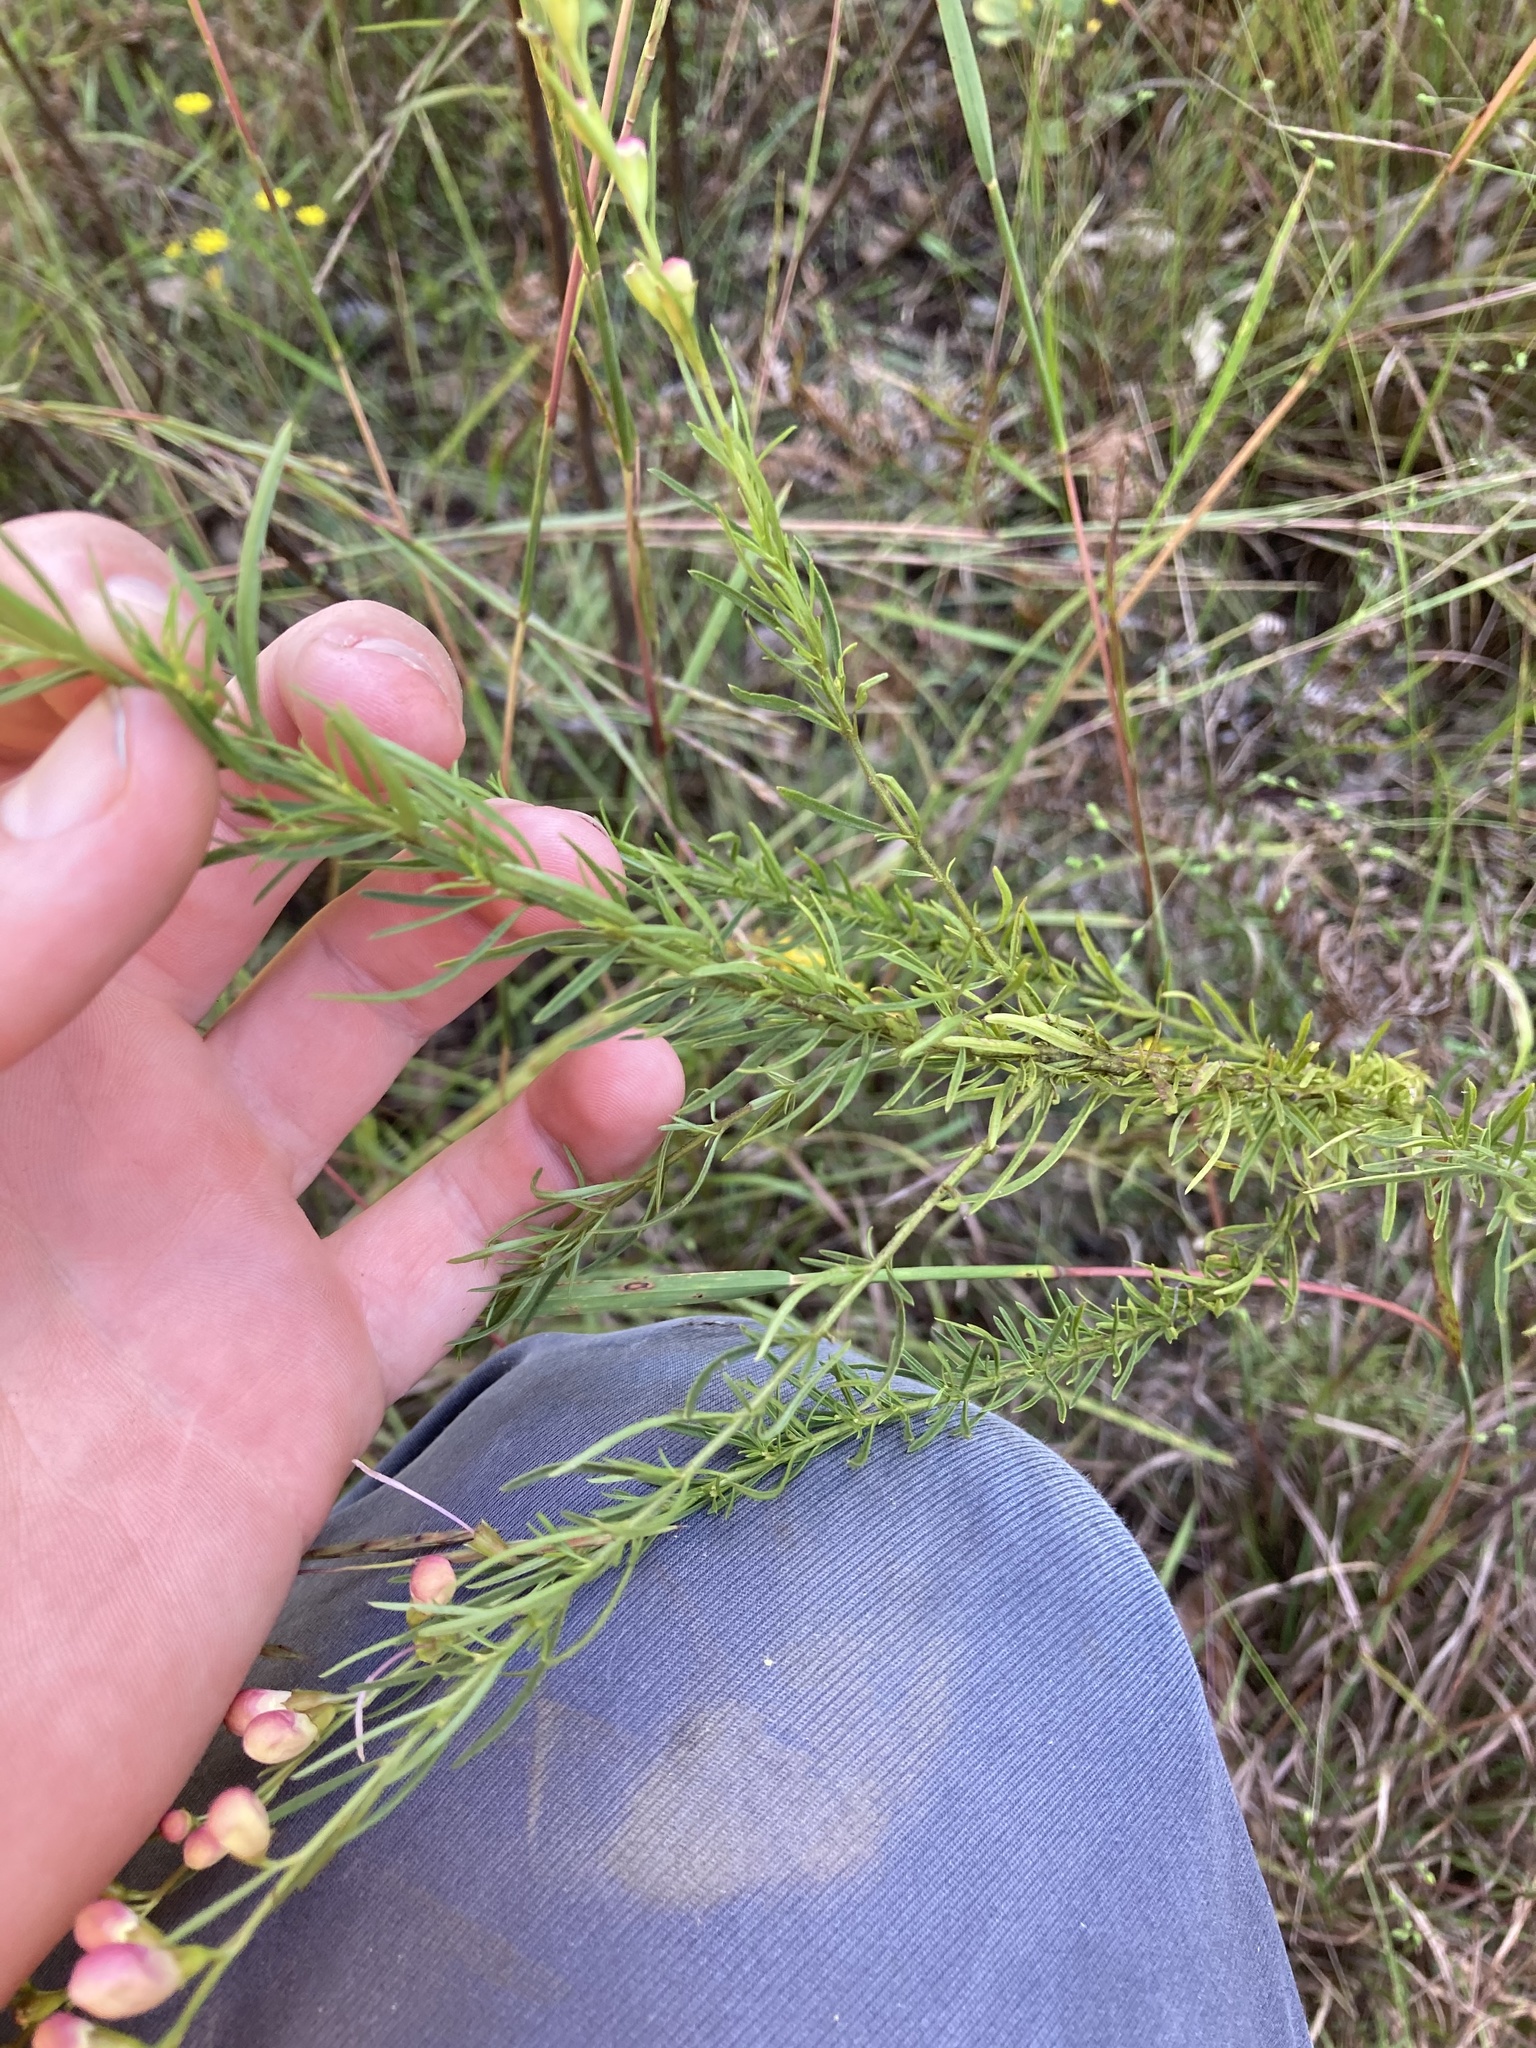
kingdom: Plantae
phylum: Tracheophyta
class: Magnoliopsida
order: Lamiales
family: Orobanchaceae
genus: Agalinis
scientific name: Agalinis fasciculata
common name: Beach false foxglove
